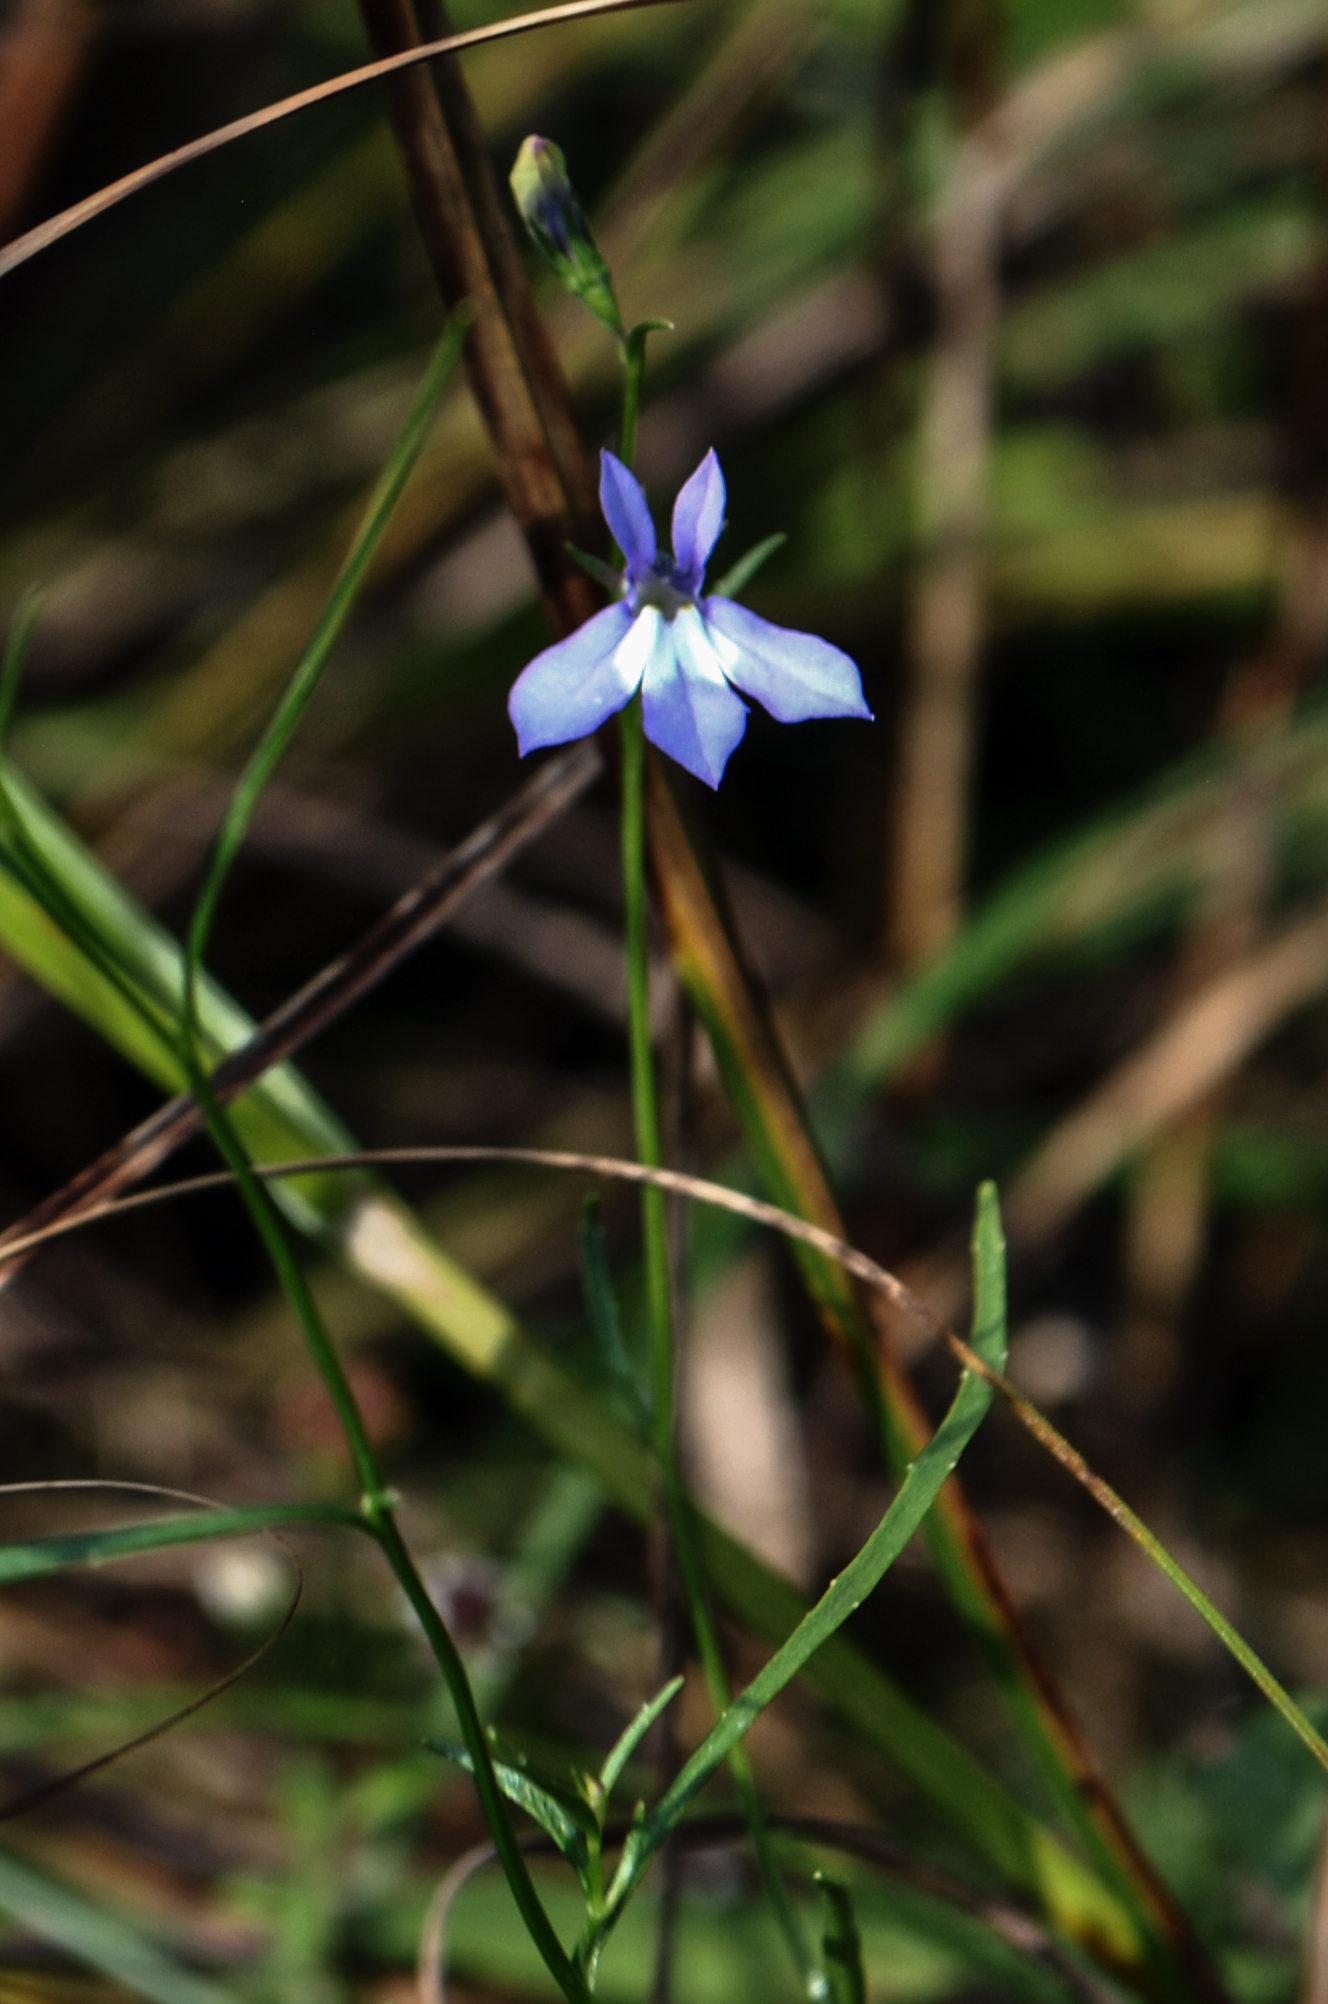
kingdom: Plantae
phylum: Tracheophyta
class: Magnoliopsida
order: Asterales
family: Campanulaceae
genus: Lobelia
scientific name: Lobelia kalmii
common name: Kalm's lobelia
